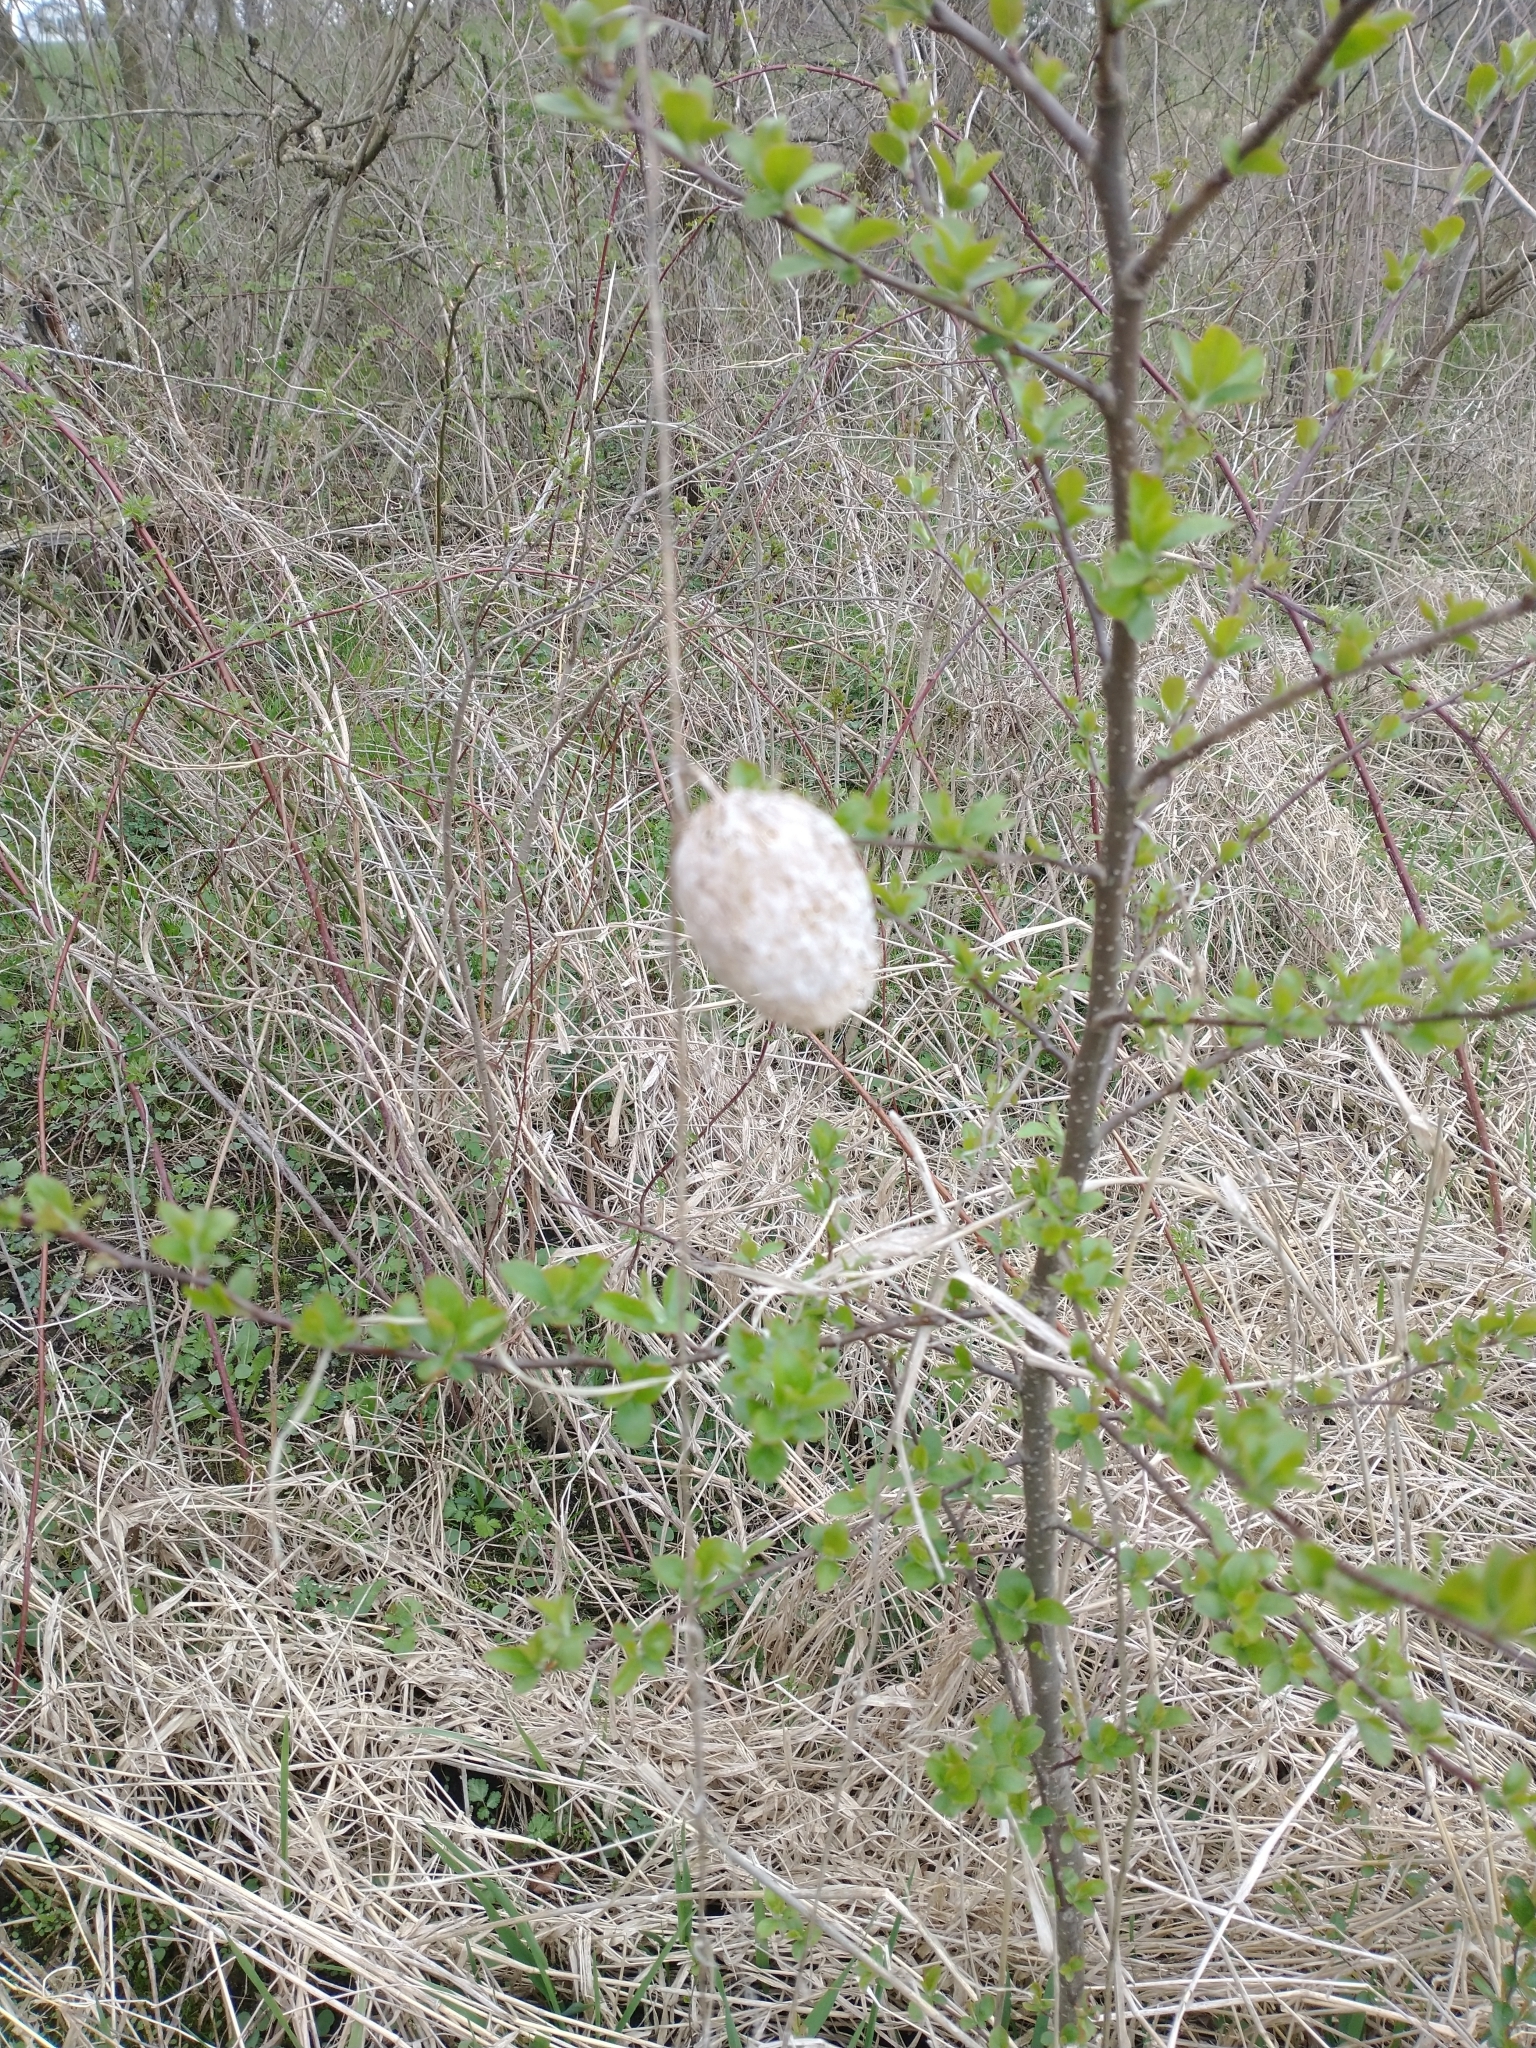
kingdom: Plantae
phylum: Tracheophyta
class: Magnoliopsida
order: Cucurbitales
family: Cucurbitaceae
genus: Echinocystis
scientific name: Echinocystis lobata
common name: Wild cucumber
